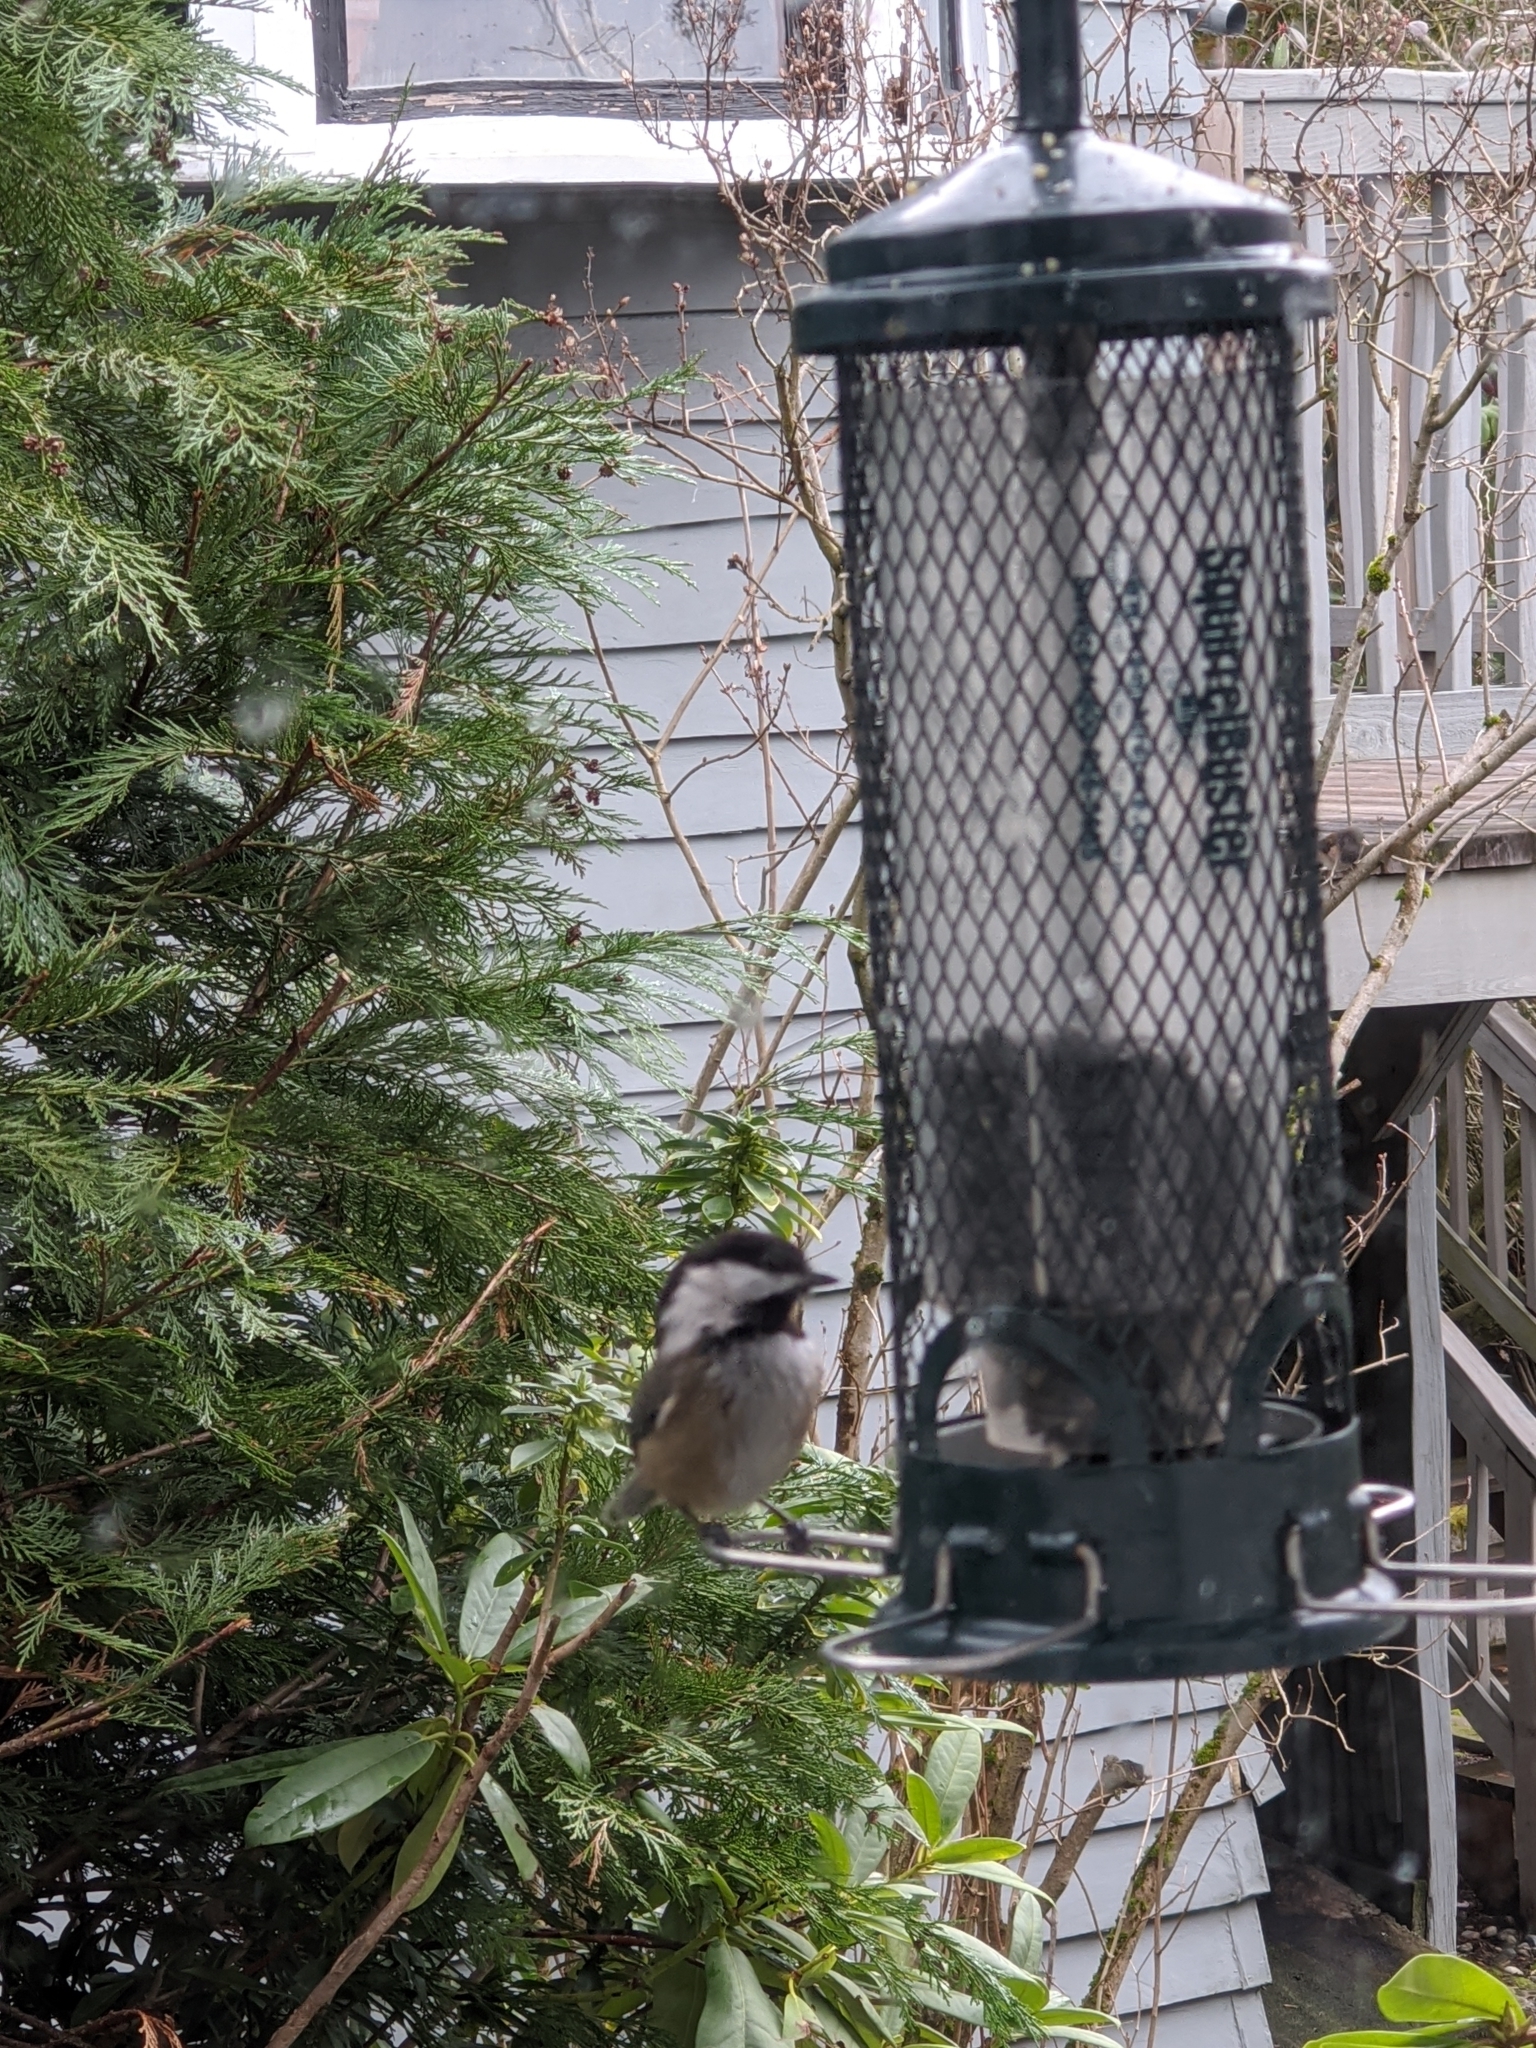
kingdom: Animalia
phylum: Chordata
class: Aves
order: Passeriformes
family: Paridae
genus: Poecile
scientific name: Poecile atricapillus
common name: Black-capped chickadee
